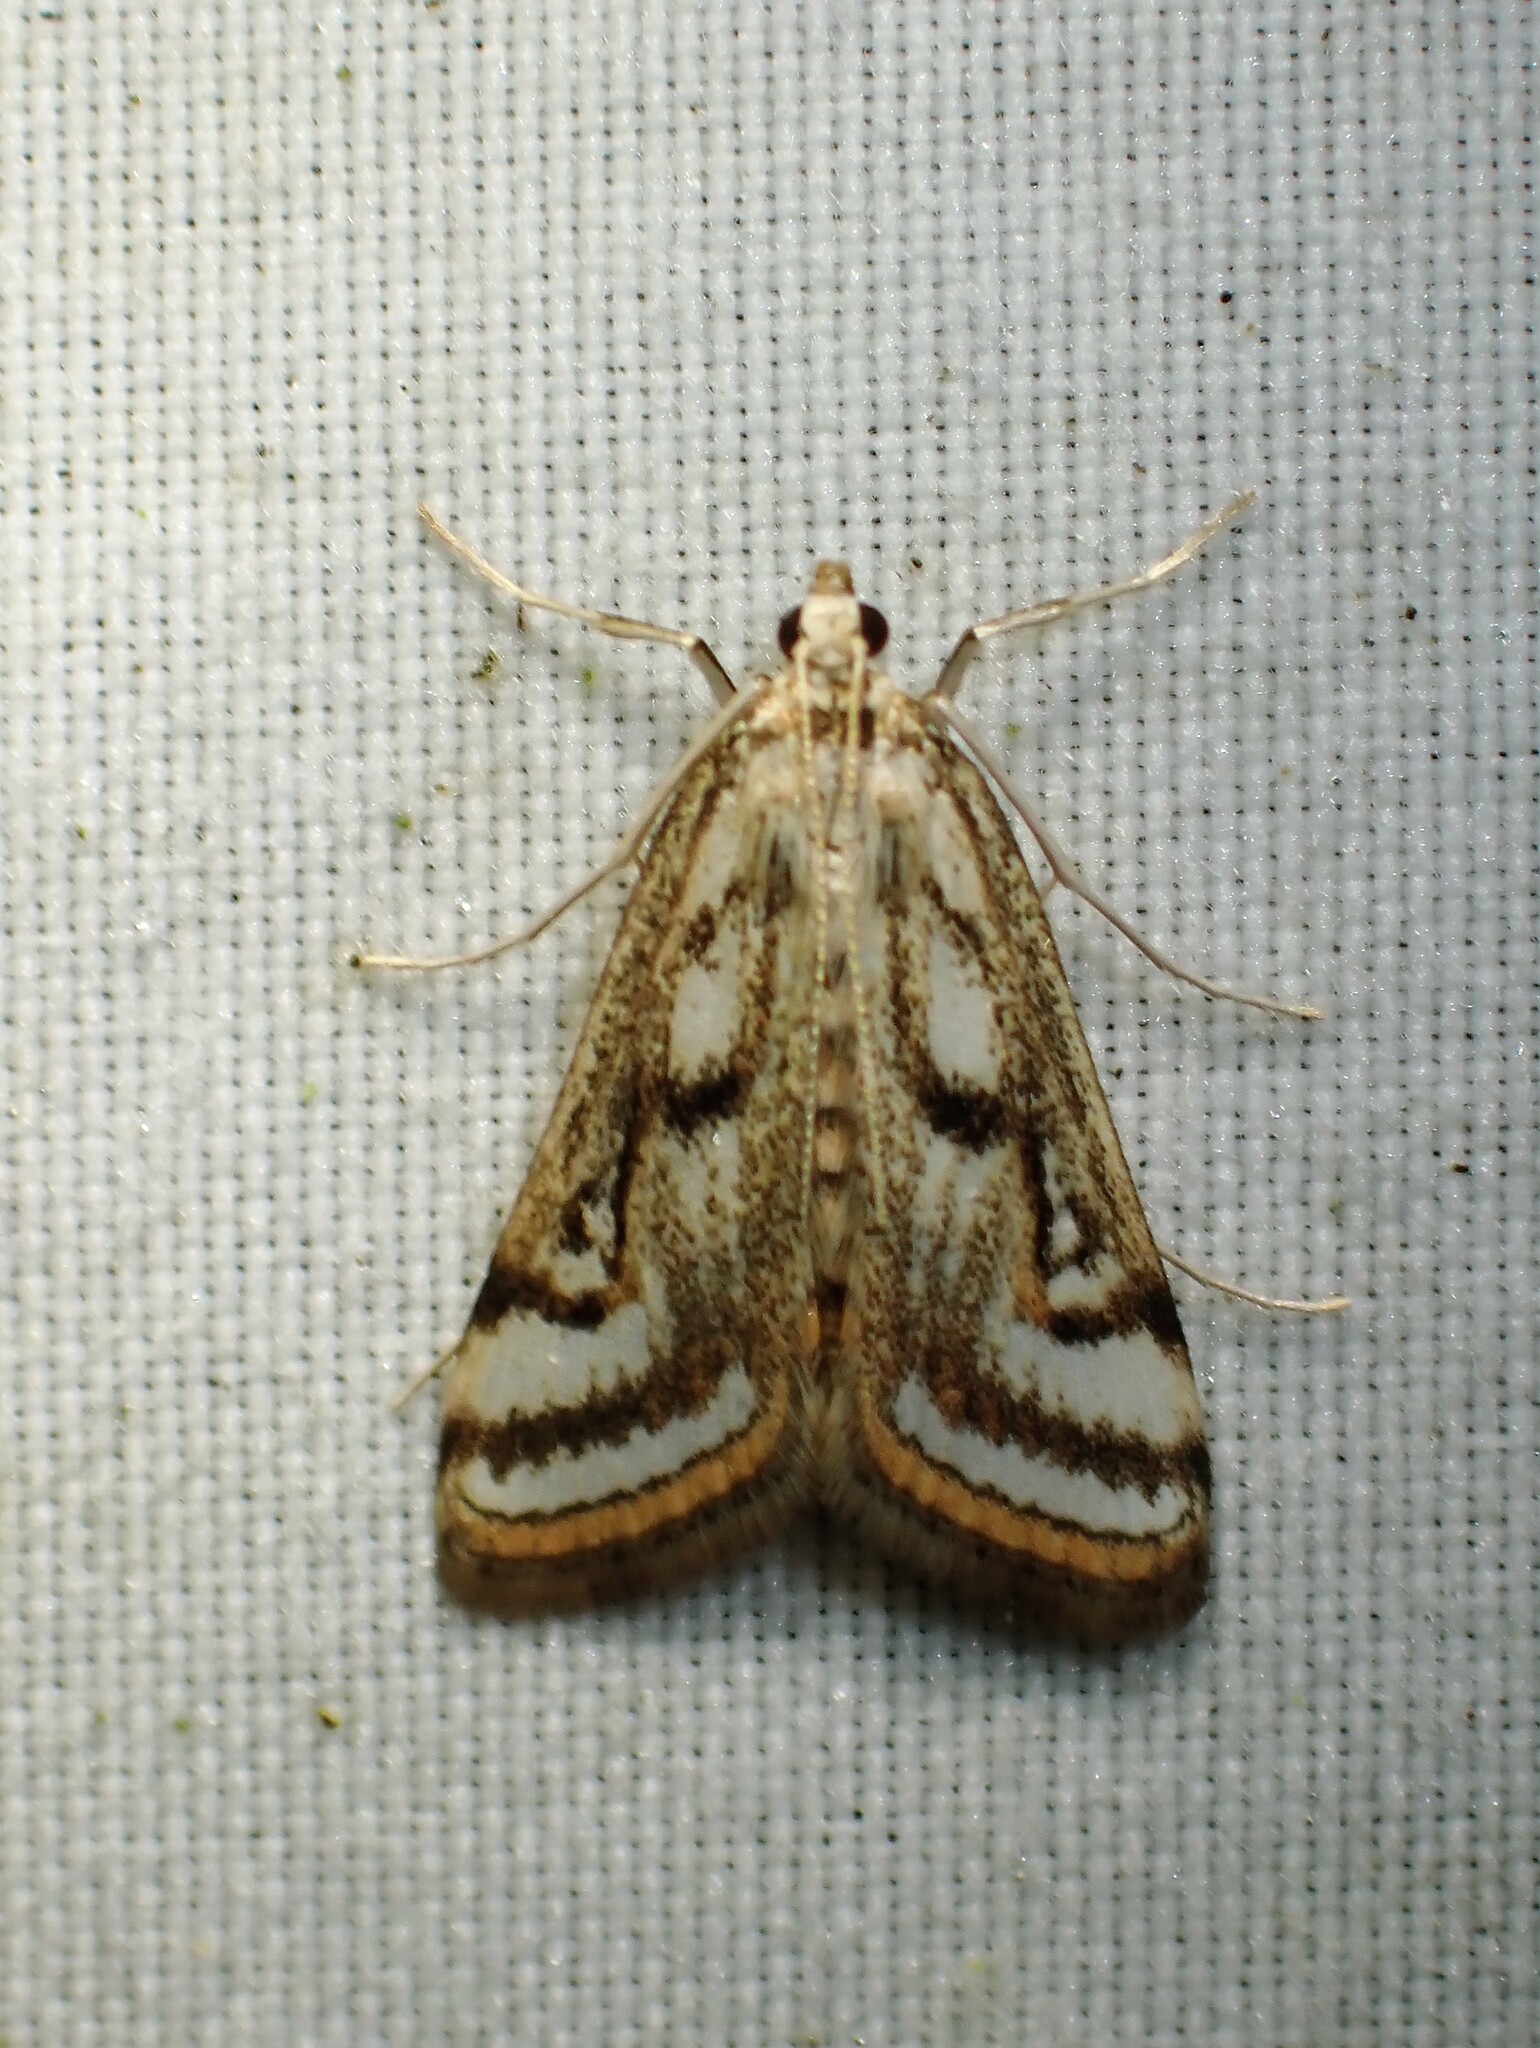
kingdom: Animalia
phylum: Arthropoda
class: Insecta
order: Lepidoptera
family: Crambidae
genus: Parapoynx
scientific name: Parapoynx badiusalis
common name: Chestnut-marked pondweed moth
